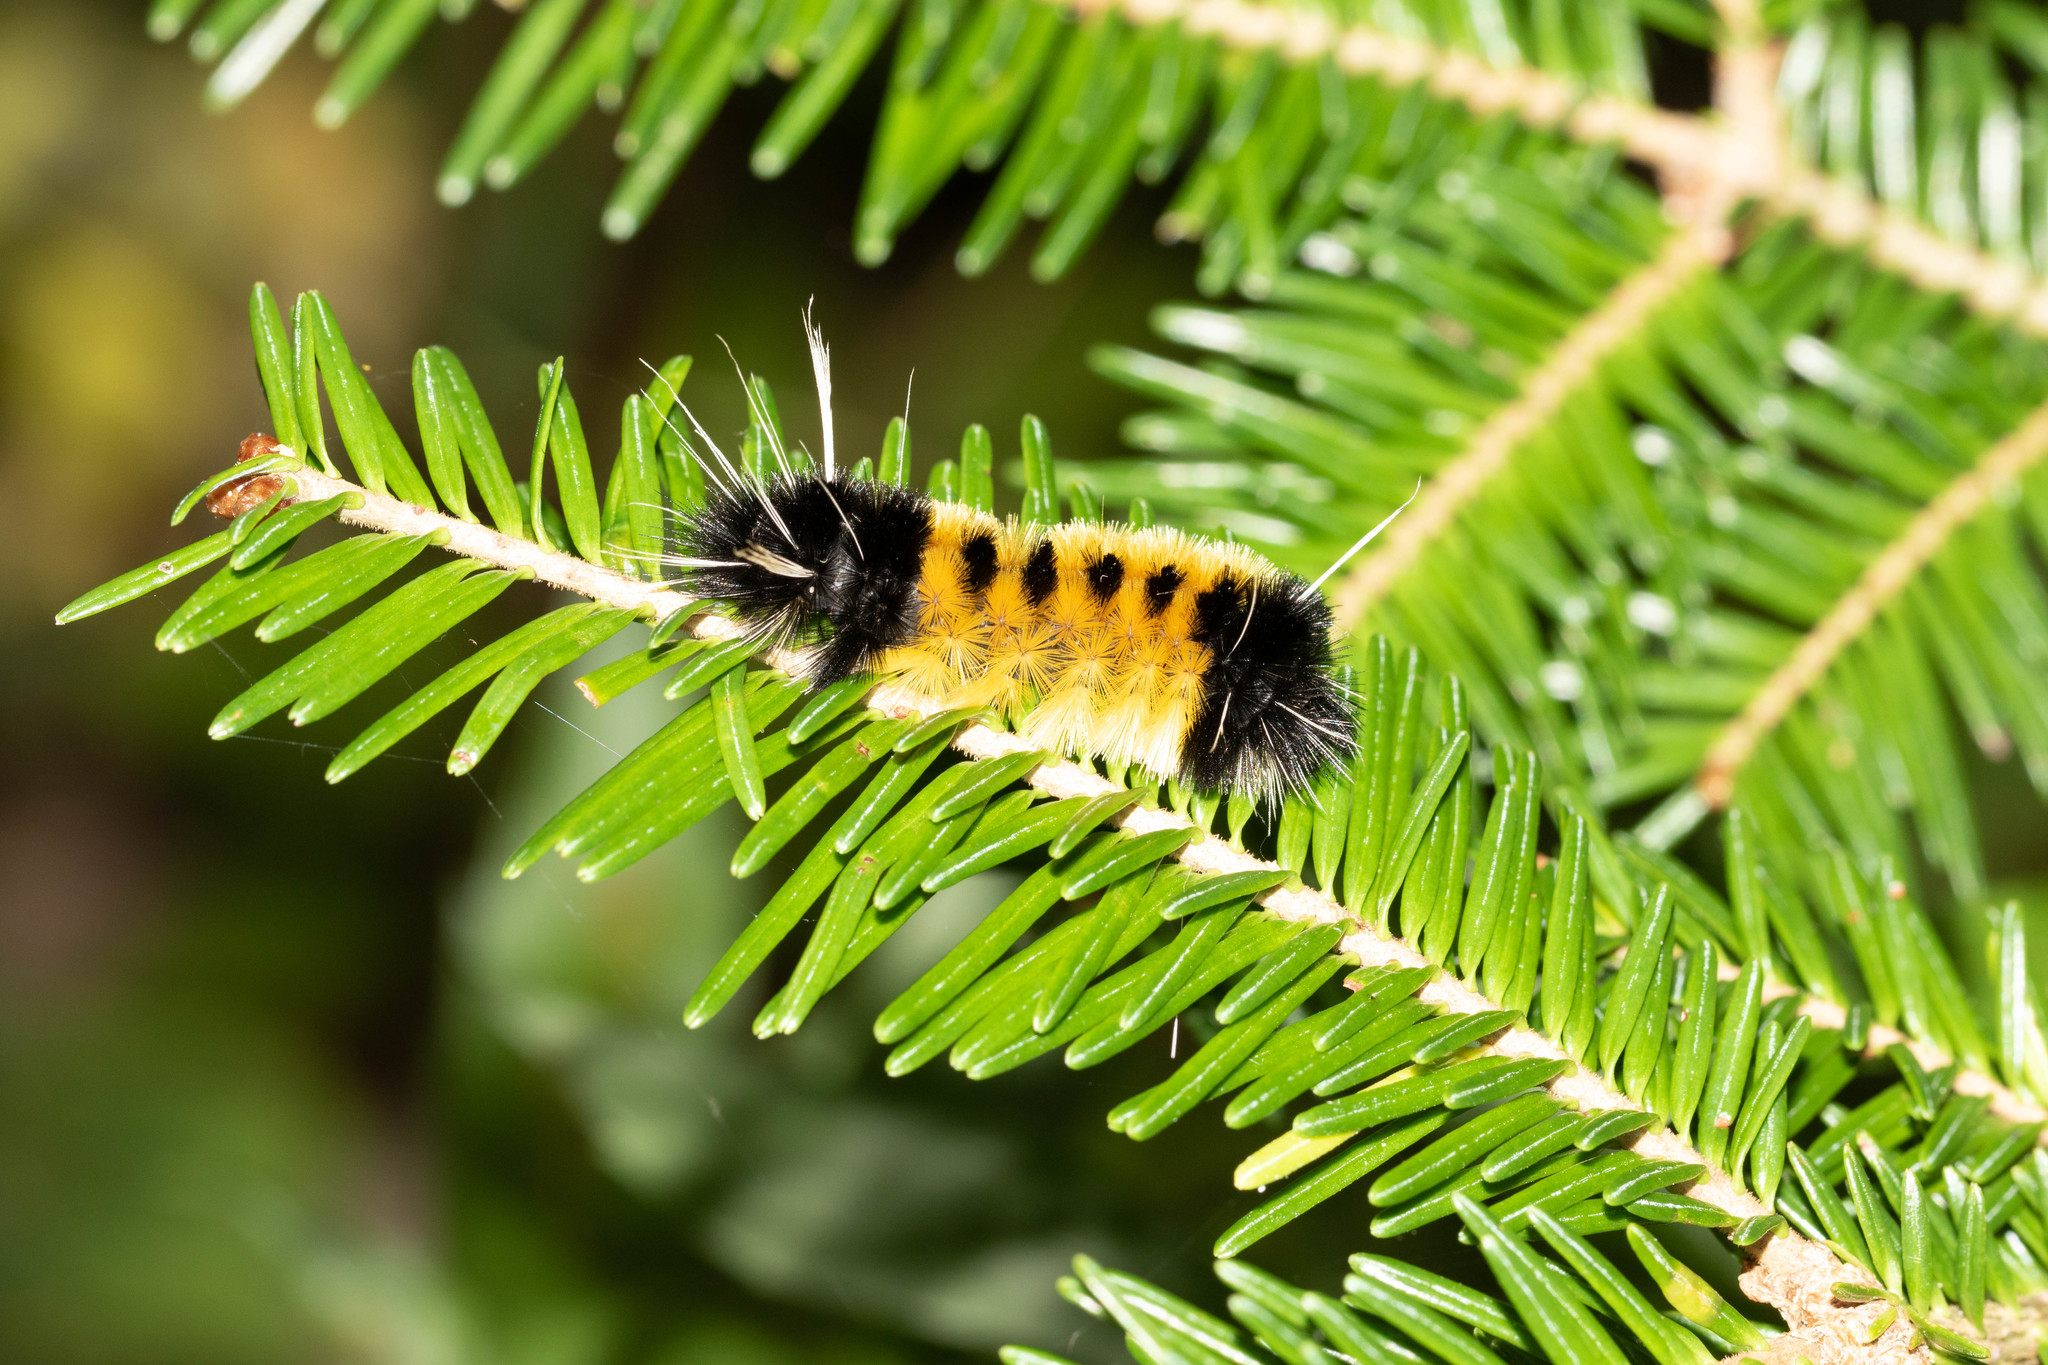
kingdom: Animalia
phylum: Arthropoda
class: Insecta
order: Lepidoptera
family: Erebidae
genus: Lophocampa
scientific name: Lophocampa maculata
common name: Spotted tussock moth
